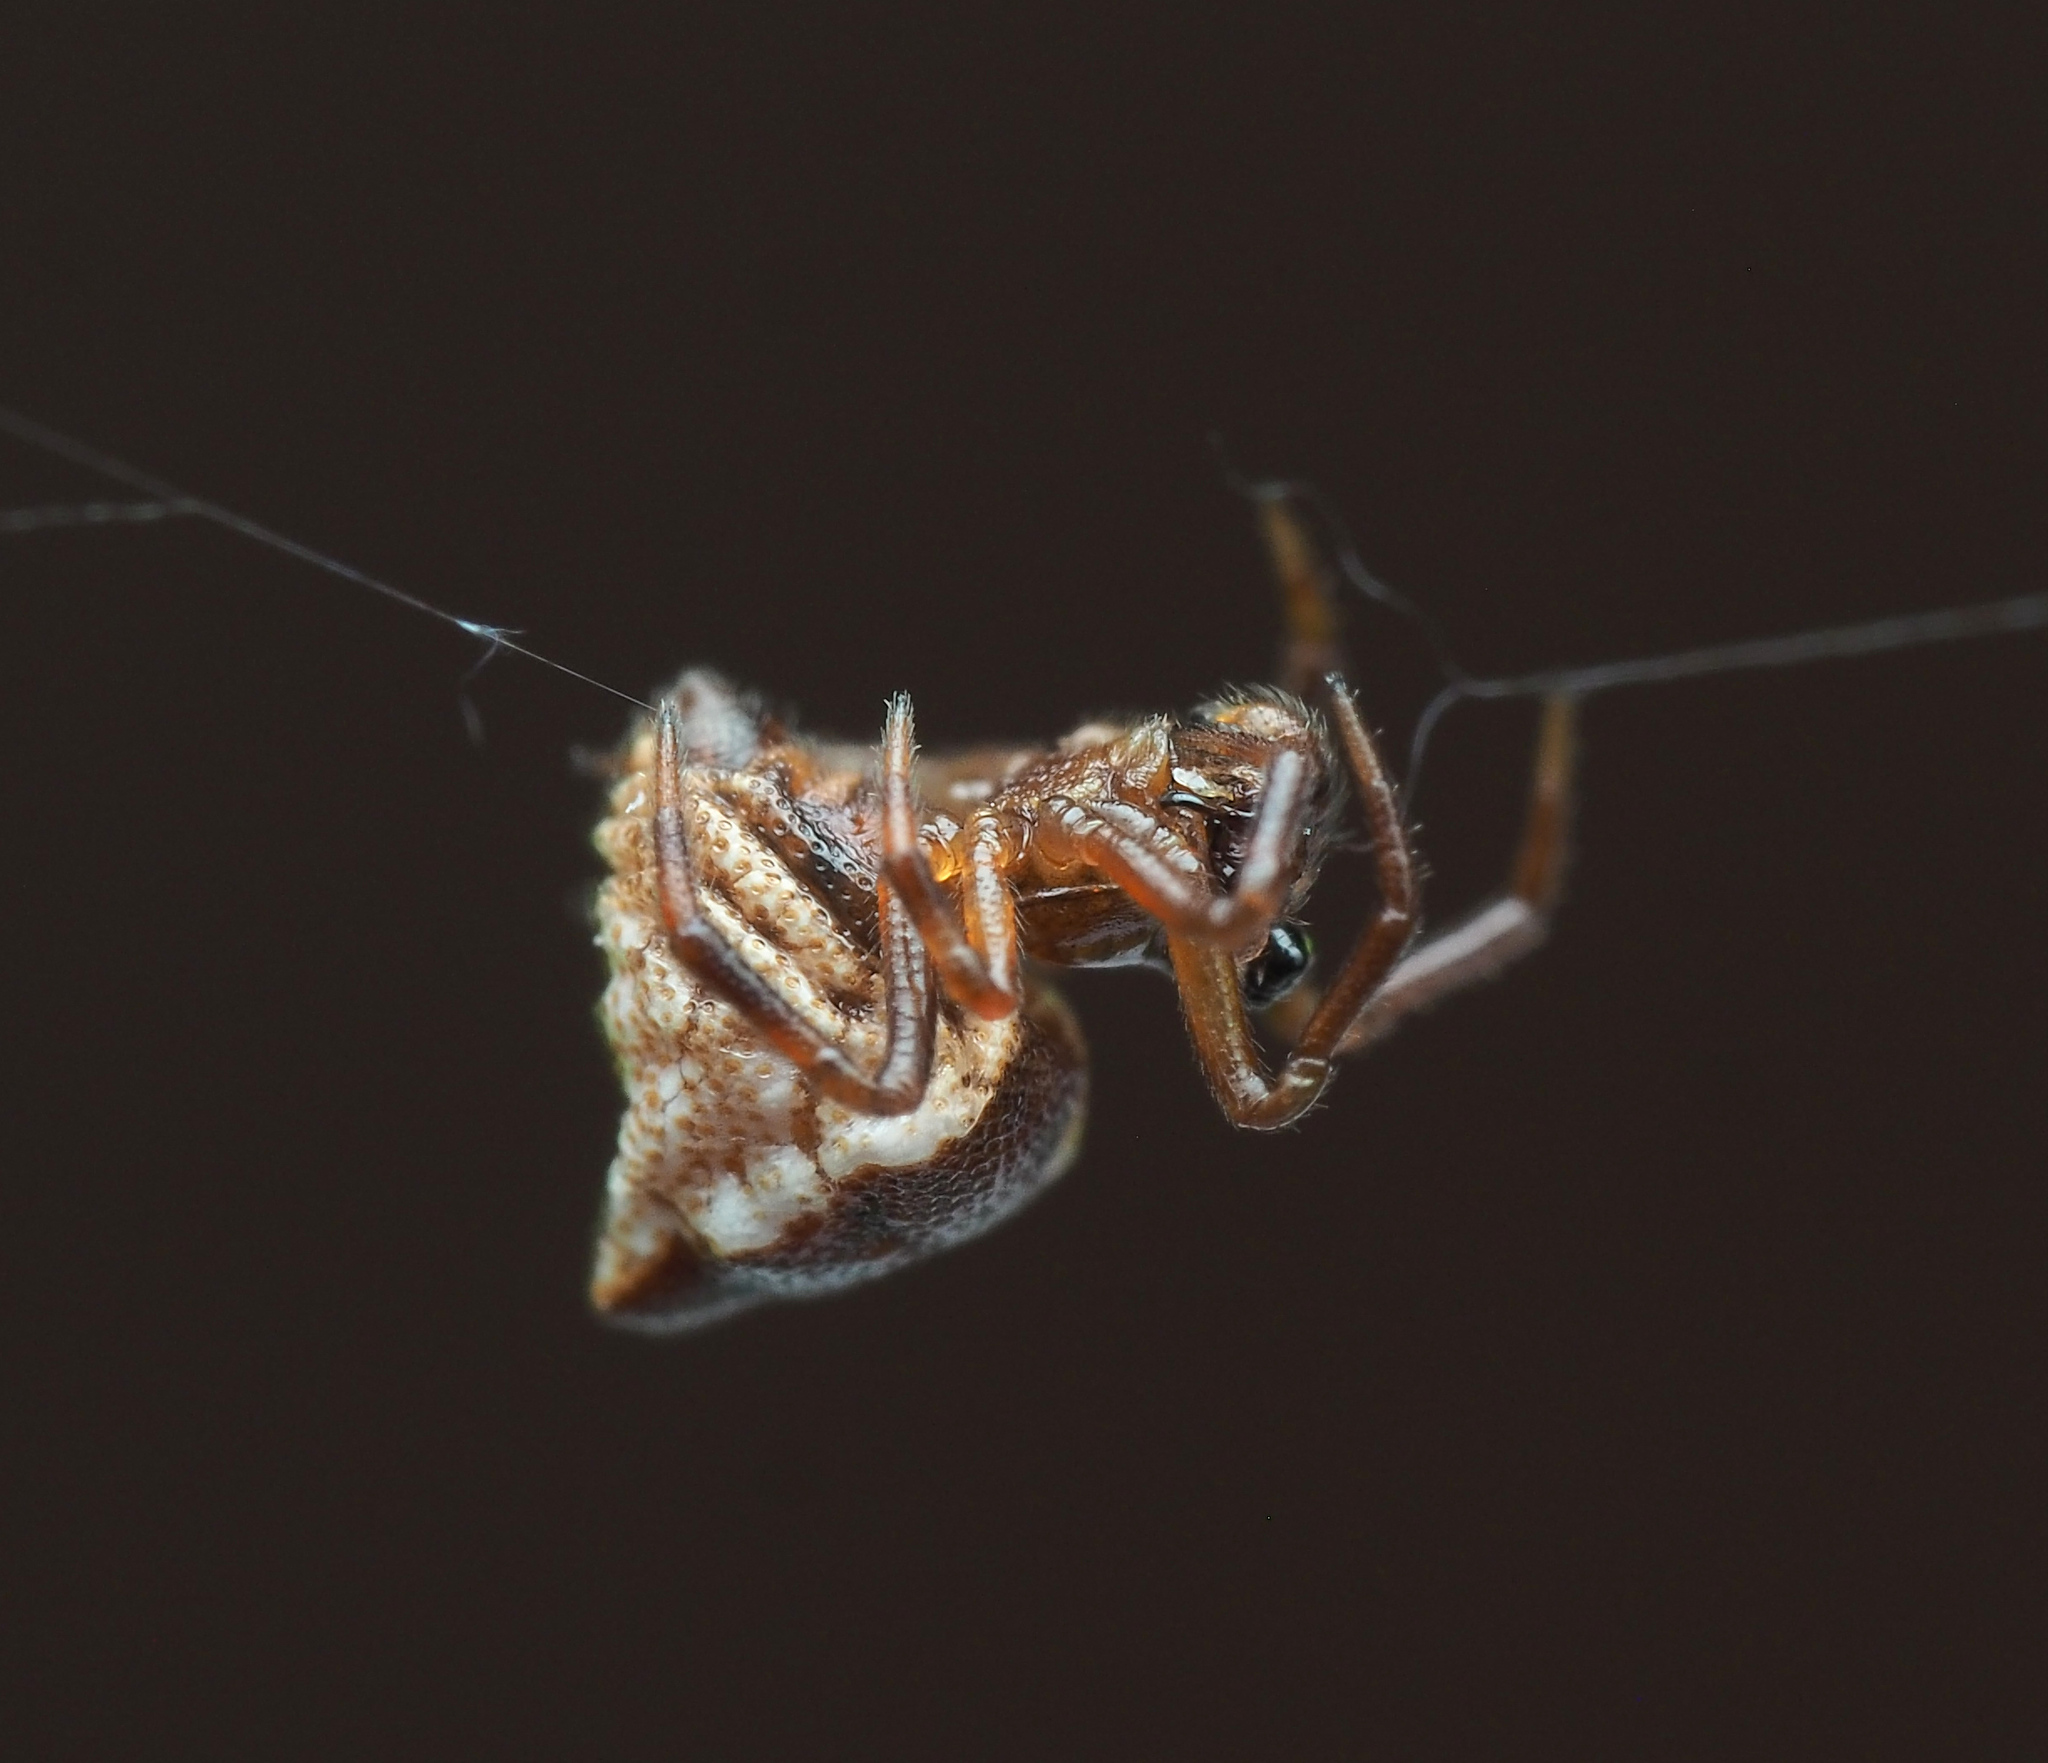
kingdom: Animalia
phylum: Arthropoda
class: Arachnida
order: Araneae
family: Theridiidae
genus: Phoroncidia
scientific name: Phoroncidia sextuberculata
